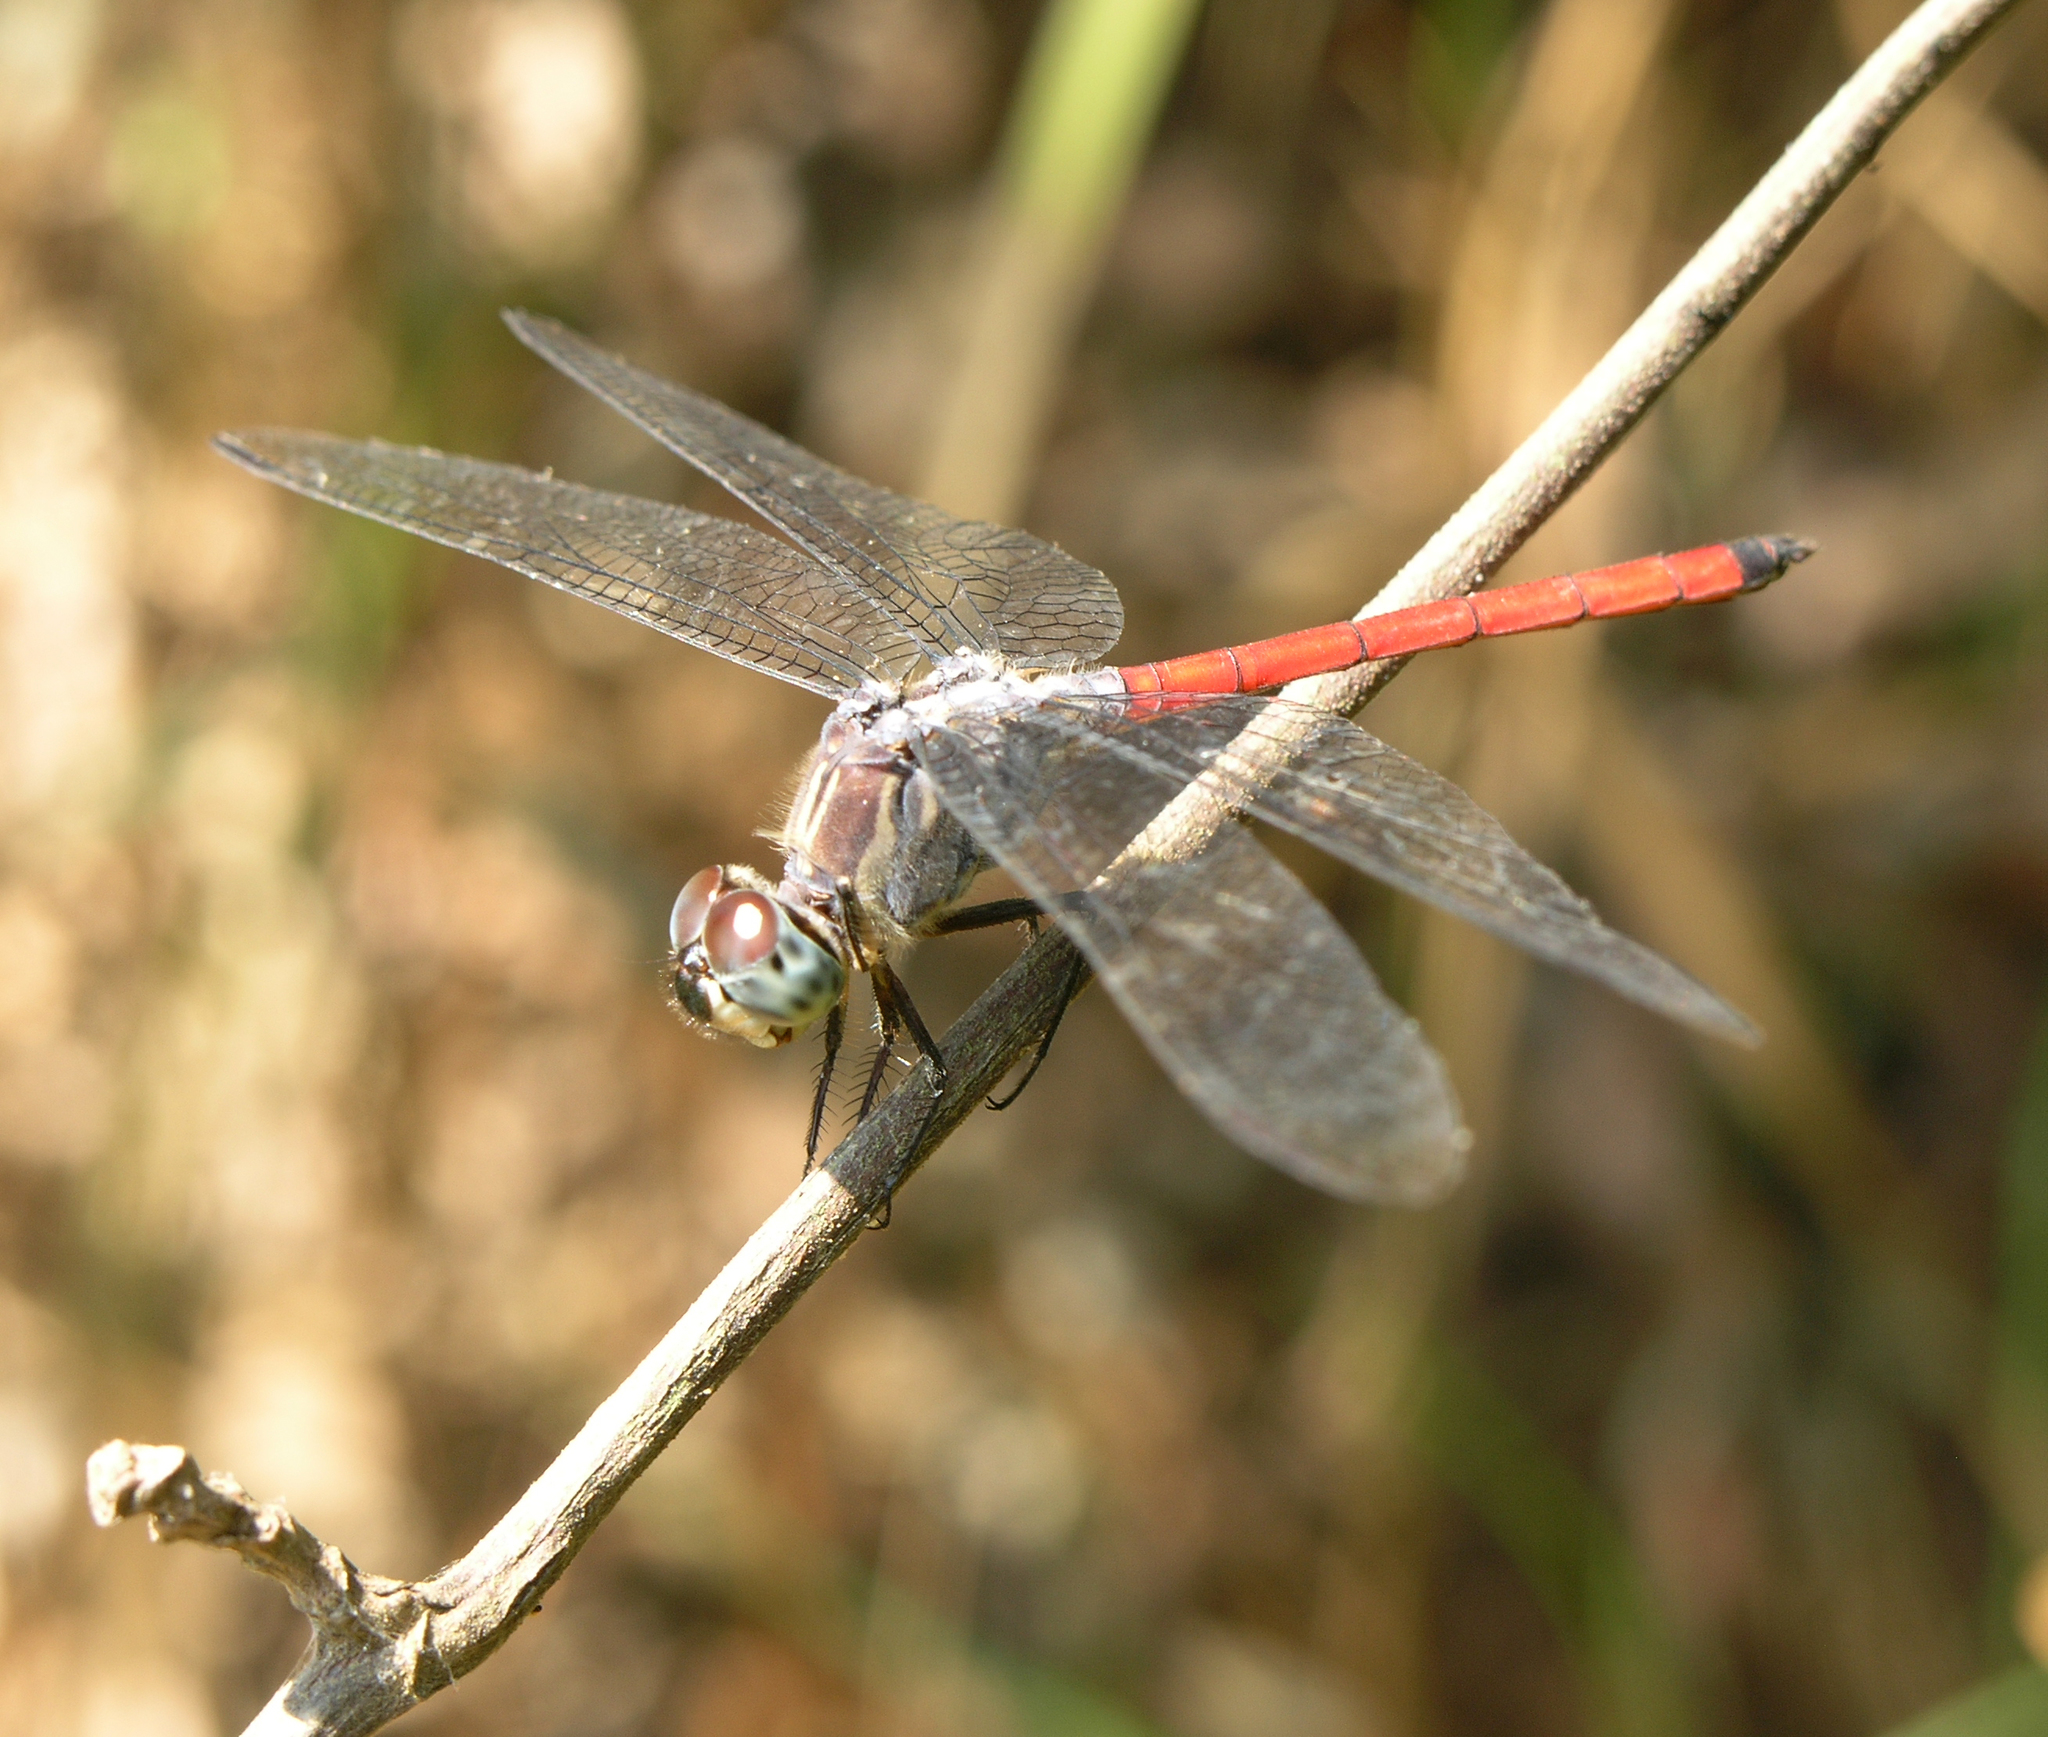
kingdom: Animalia
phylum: Arthropoda
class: Insecta
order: Odonata
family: Libellulidae
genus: Lathrecista
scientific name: Lathrecista asiatica
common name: Scarlet grenadier
